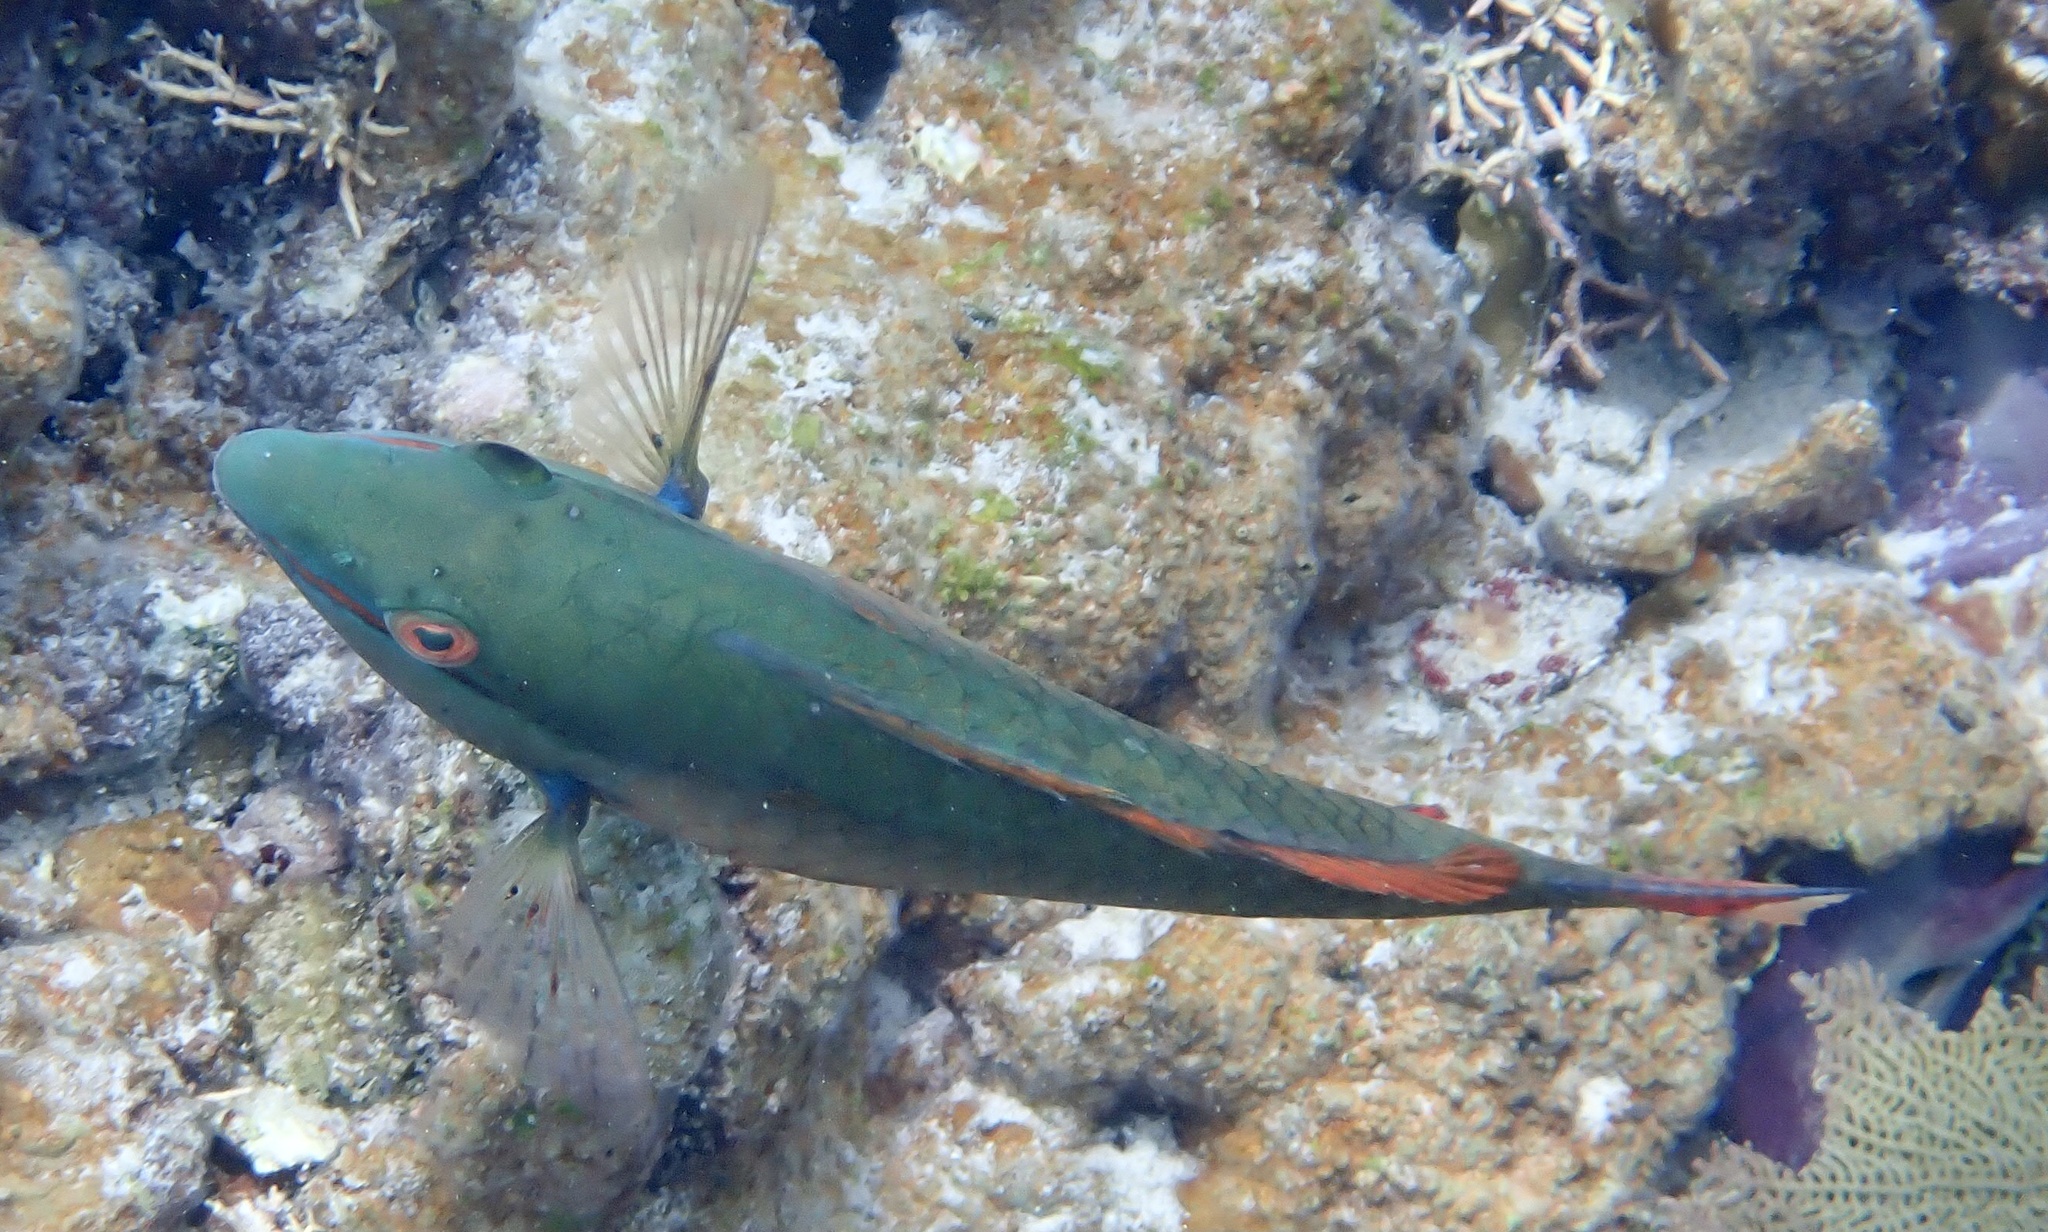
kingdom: Animalia
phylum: Chordata
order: Perciformes
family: Scaridae
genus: Sparisoma
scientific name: Sparisoma aurofrenatum
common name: Redband parrotfish
